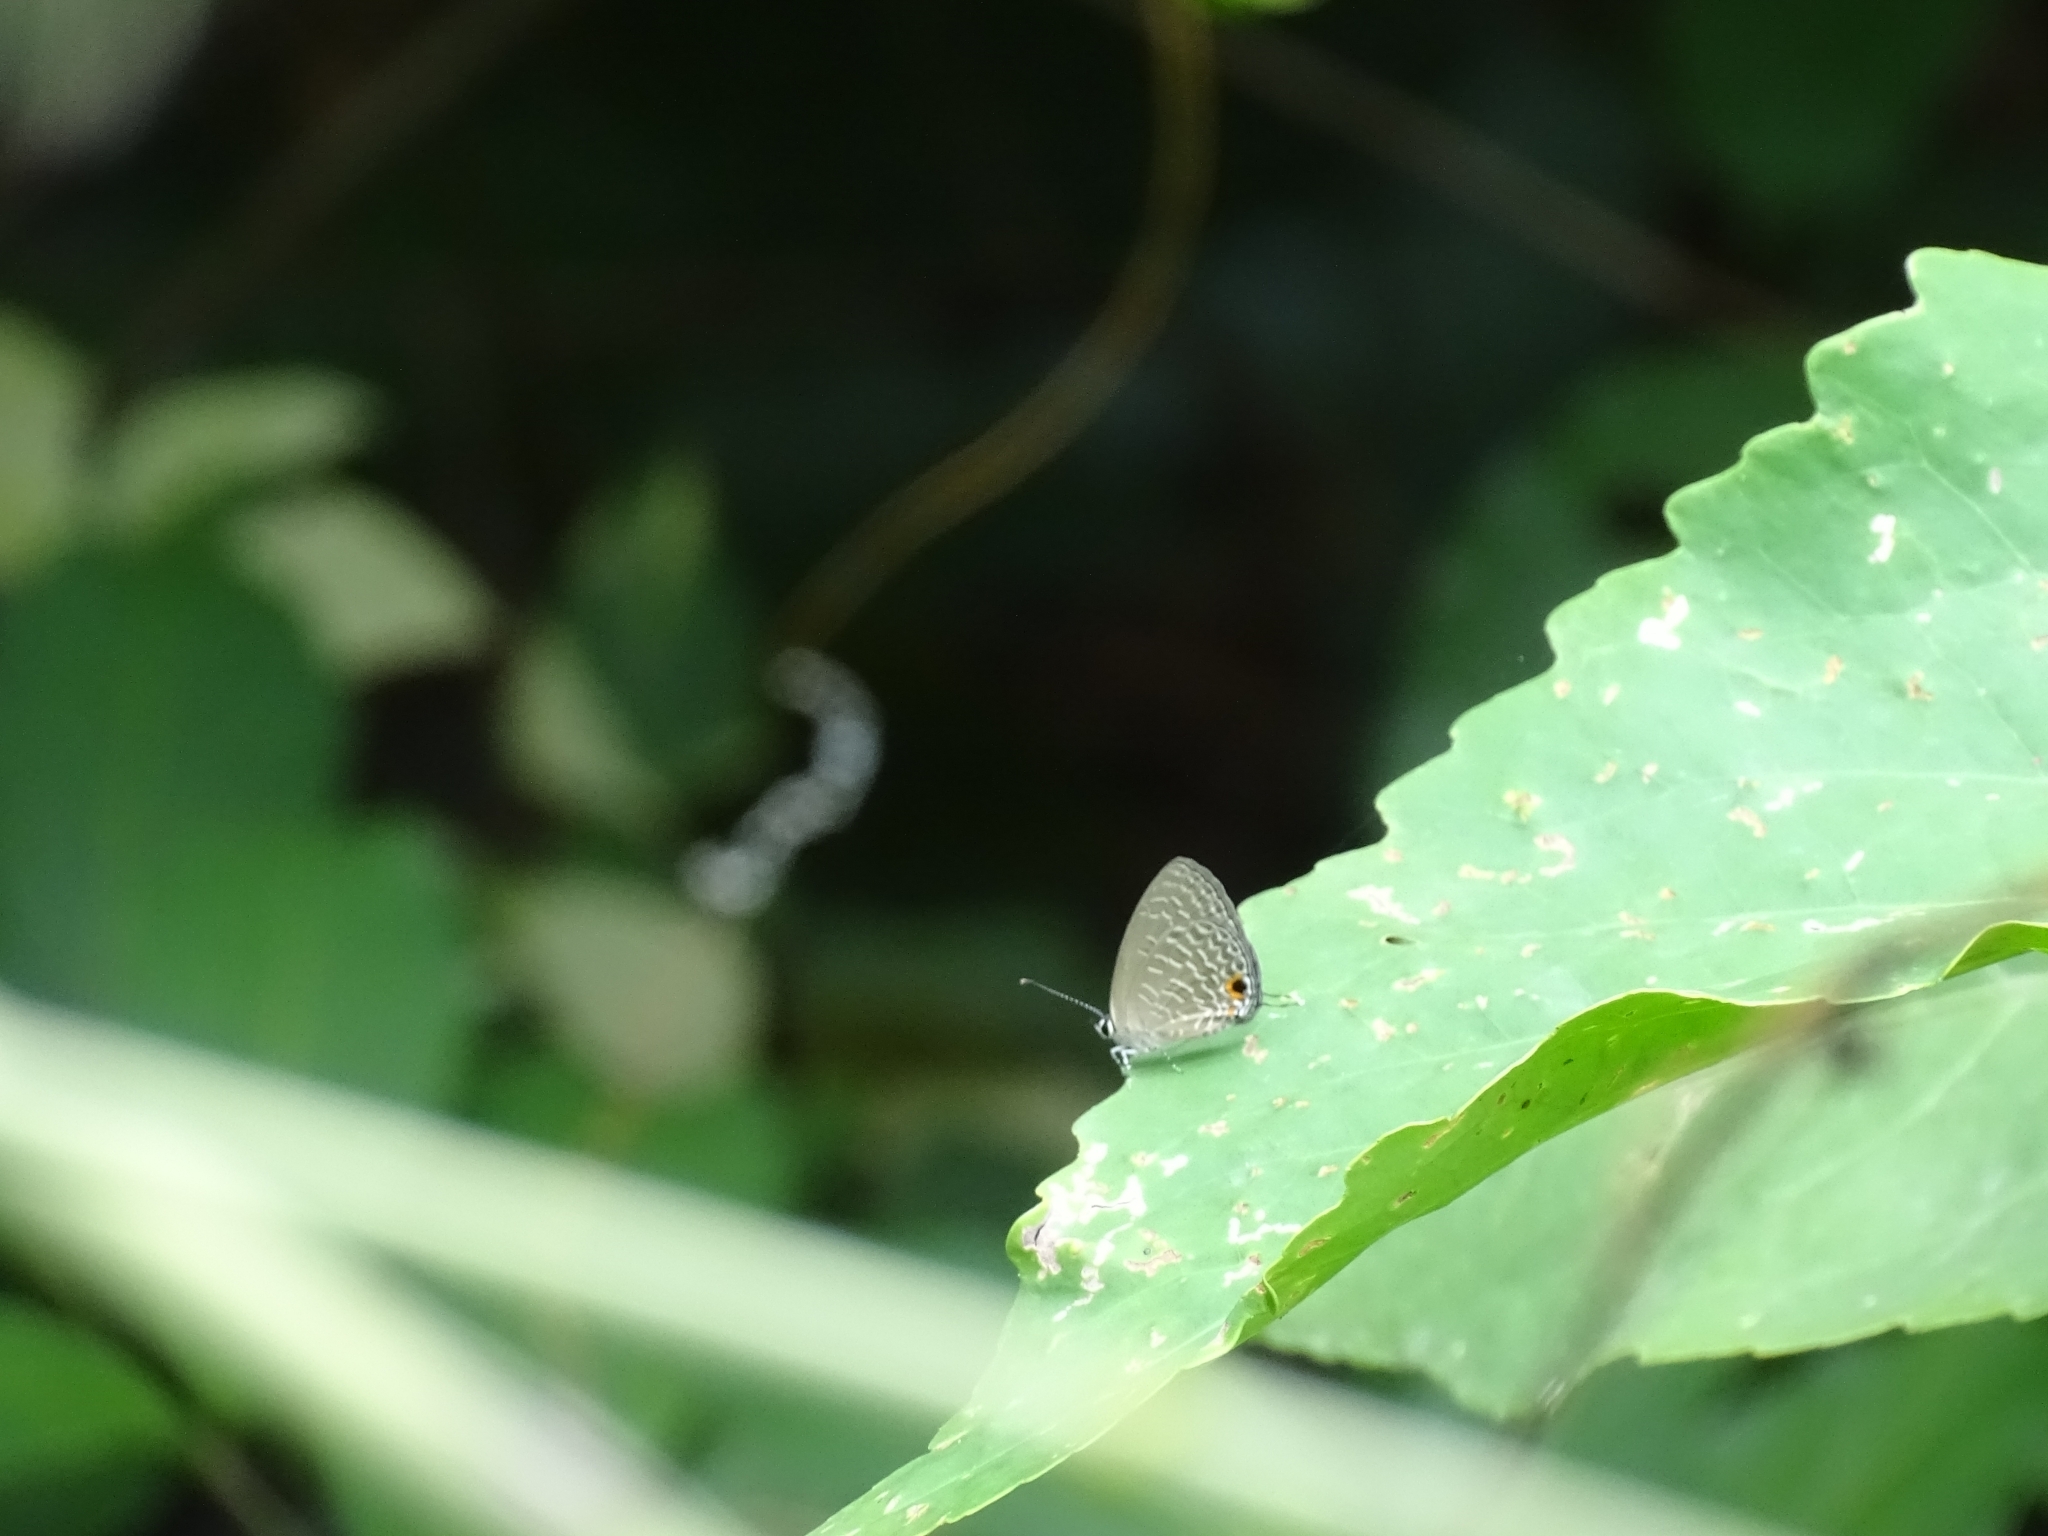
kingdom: Animalia
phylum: Arthropoda
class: Insecta
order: Lepidoptera
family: Lycaenidae
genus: Jamides
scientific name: Jamides bochus
